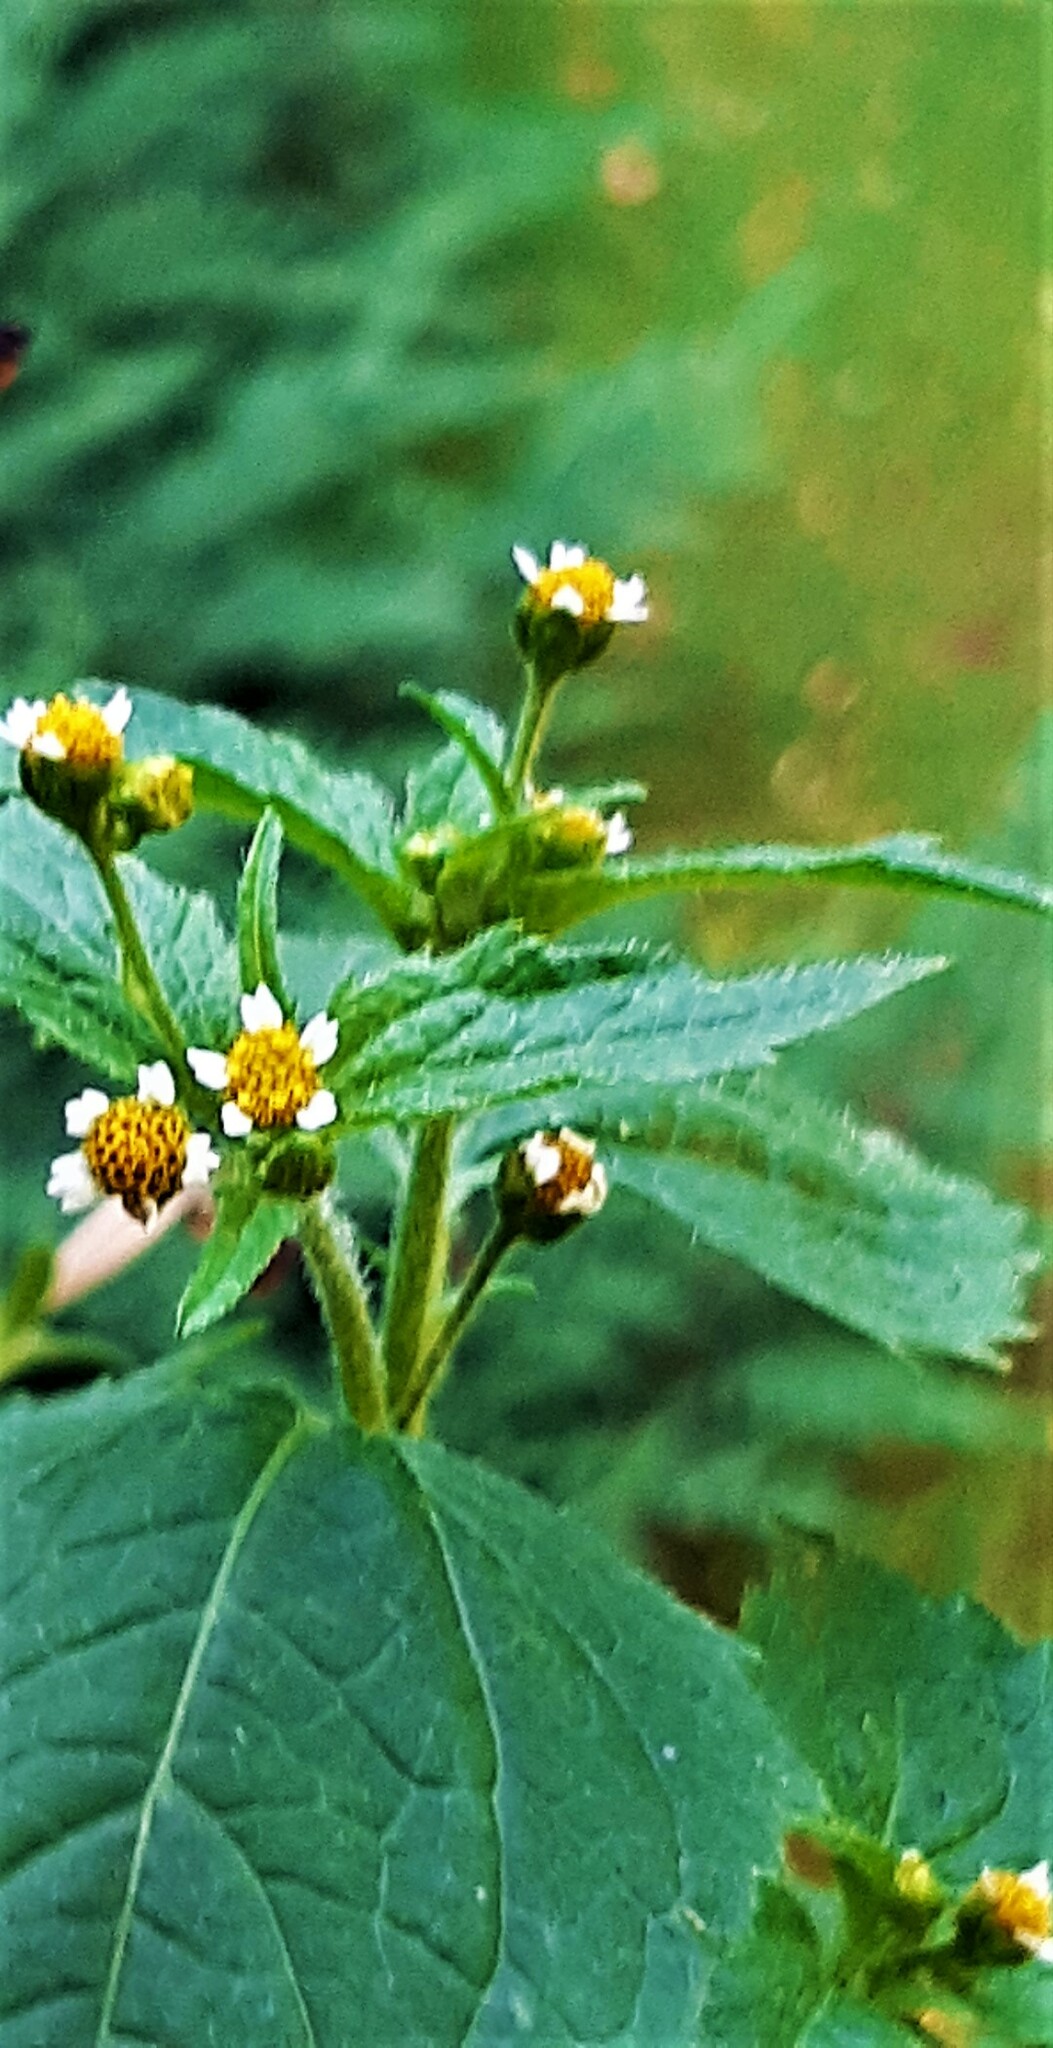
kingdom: Plantae
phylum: Tracheophyta
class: Magnoliopsida
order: Asterales
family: Asteraceae
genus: Galinsoga
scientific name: Galinsoga quadriradiata
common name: Shaggy soldier
